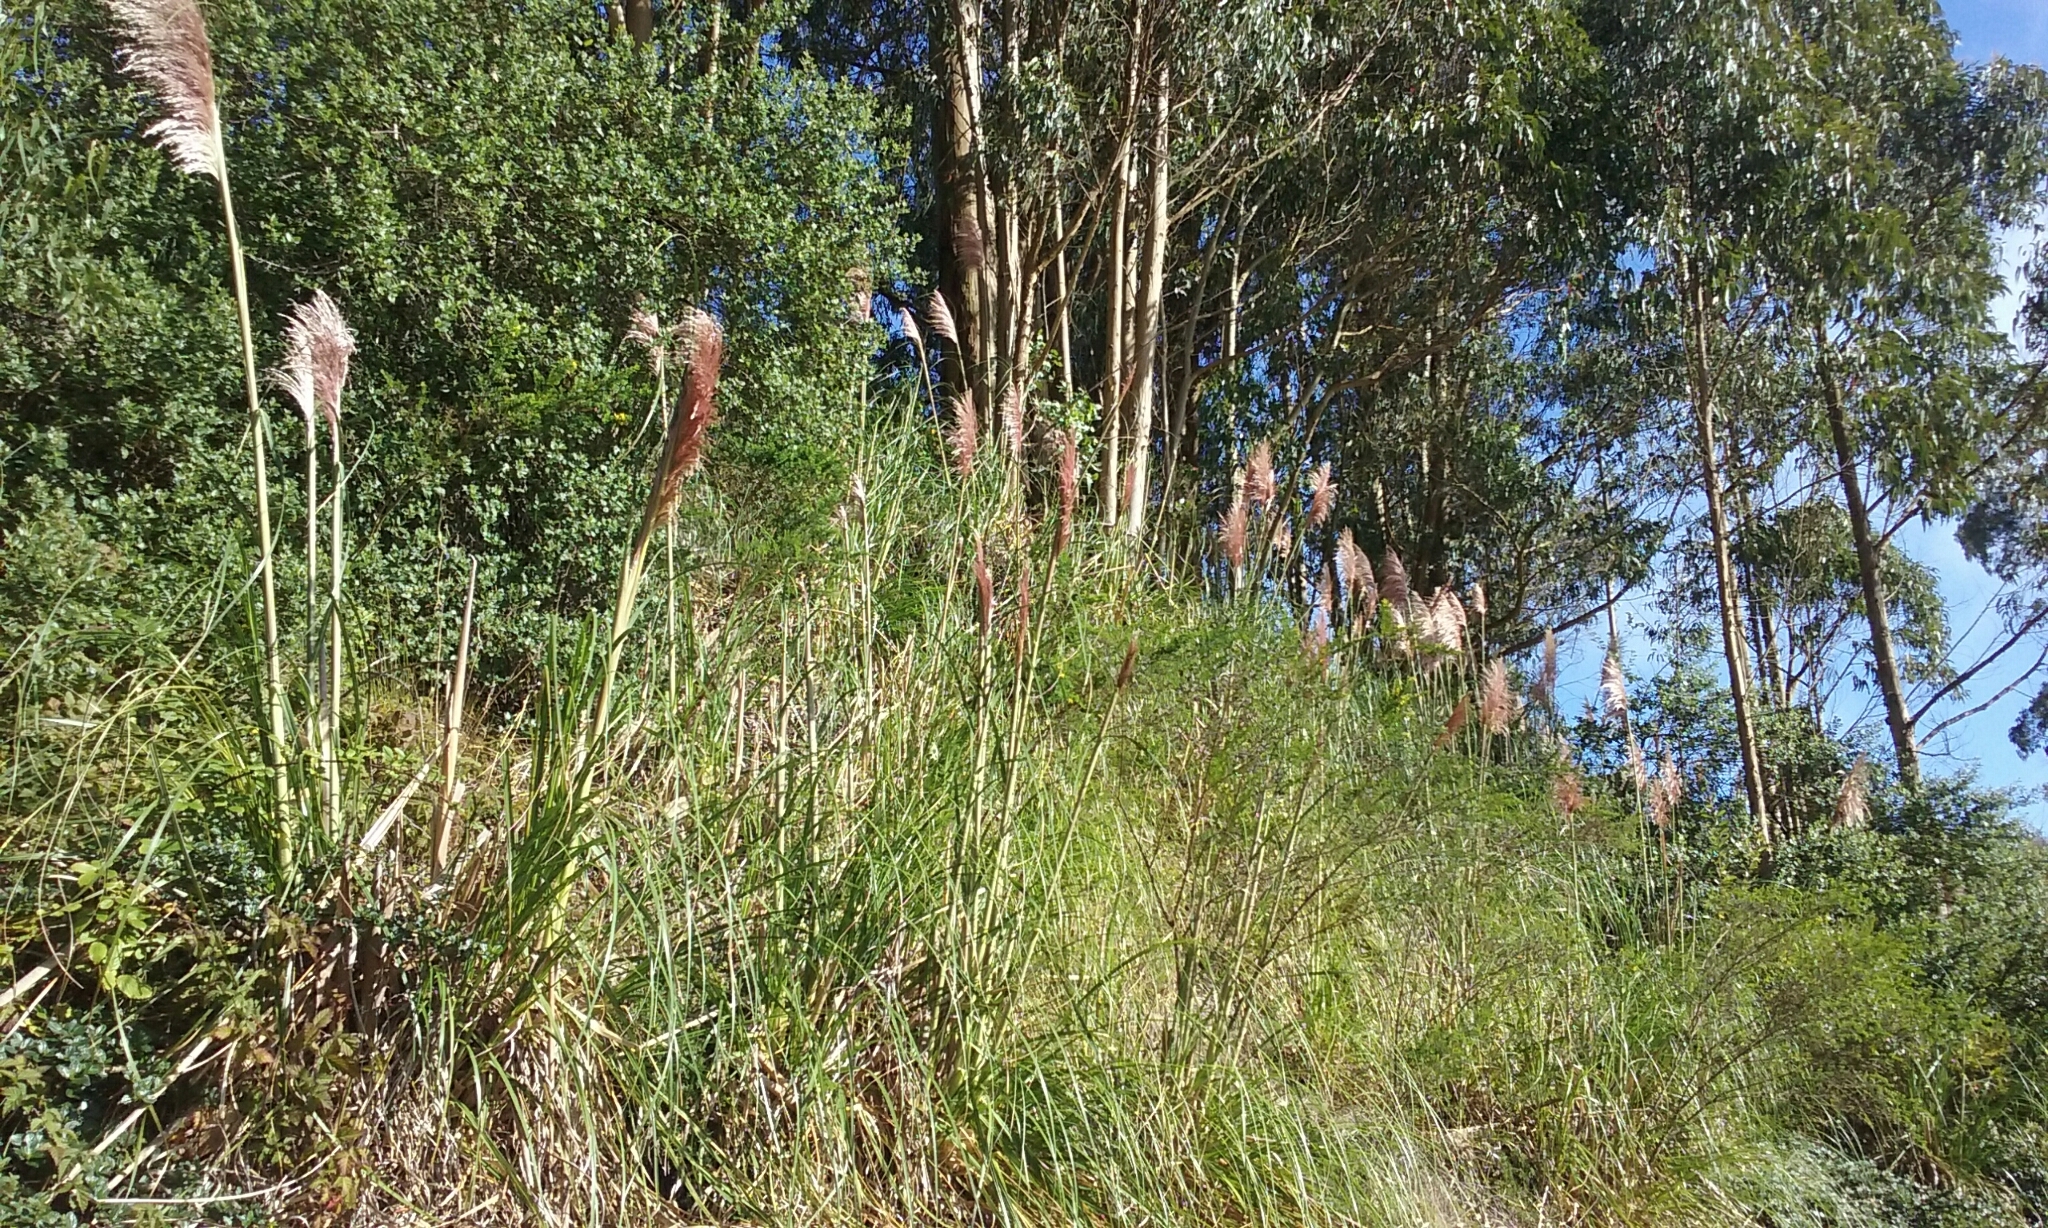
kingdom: Plantae
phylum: Tracheophyta
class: Liliopsida
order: Poales
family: Poaceae
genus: Cortaderia
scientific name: Cortaderia jubata
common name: Purple pampas grass
